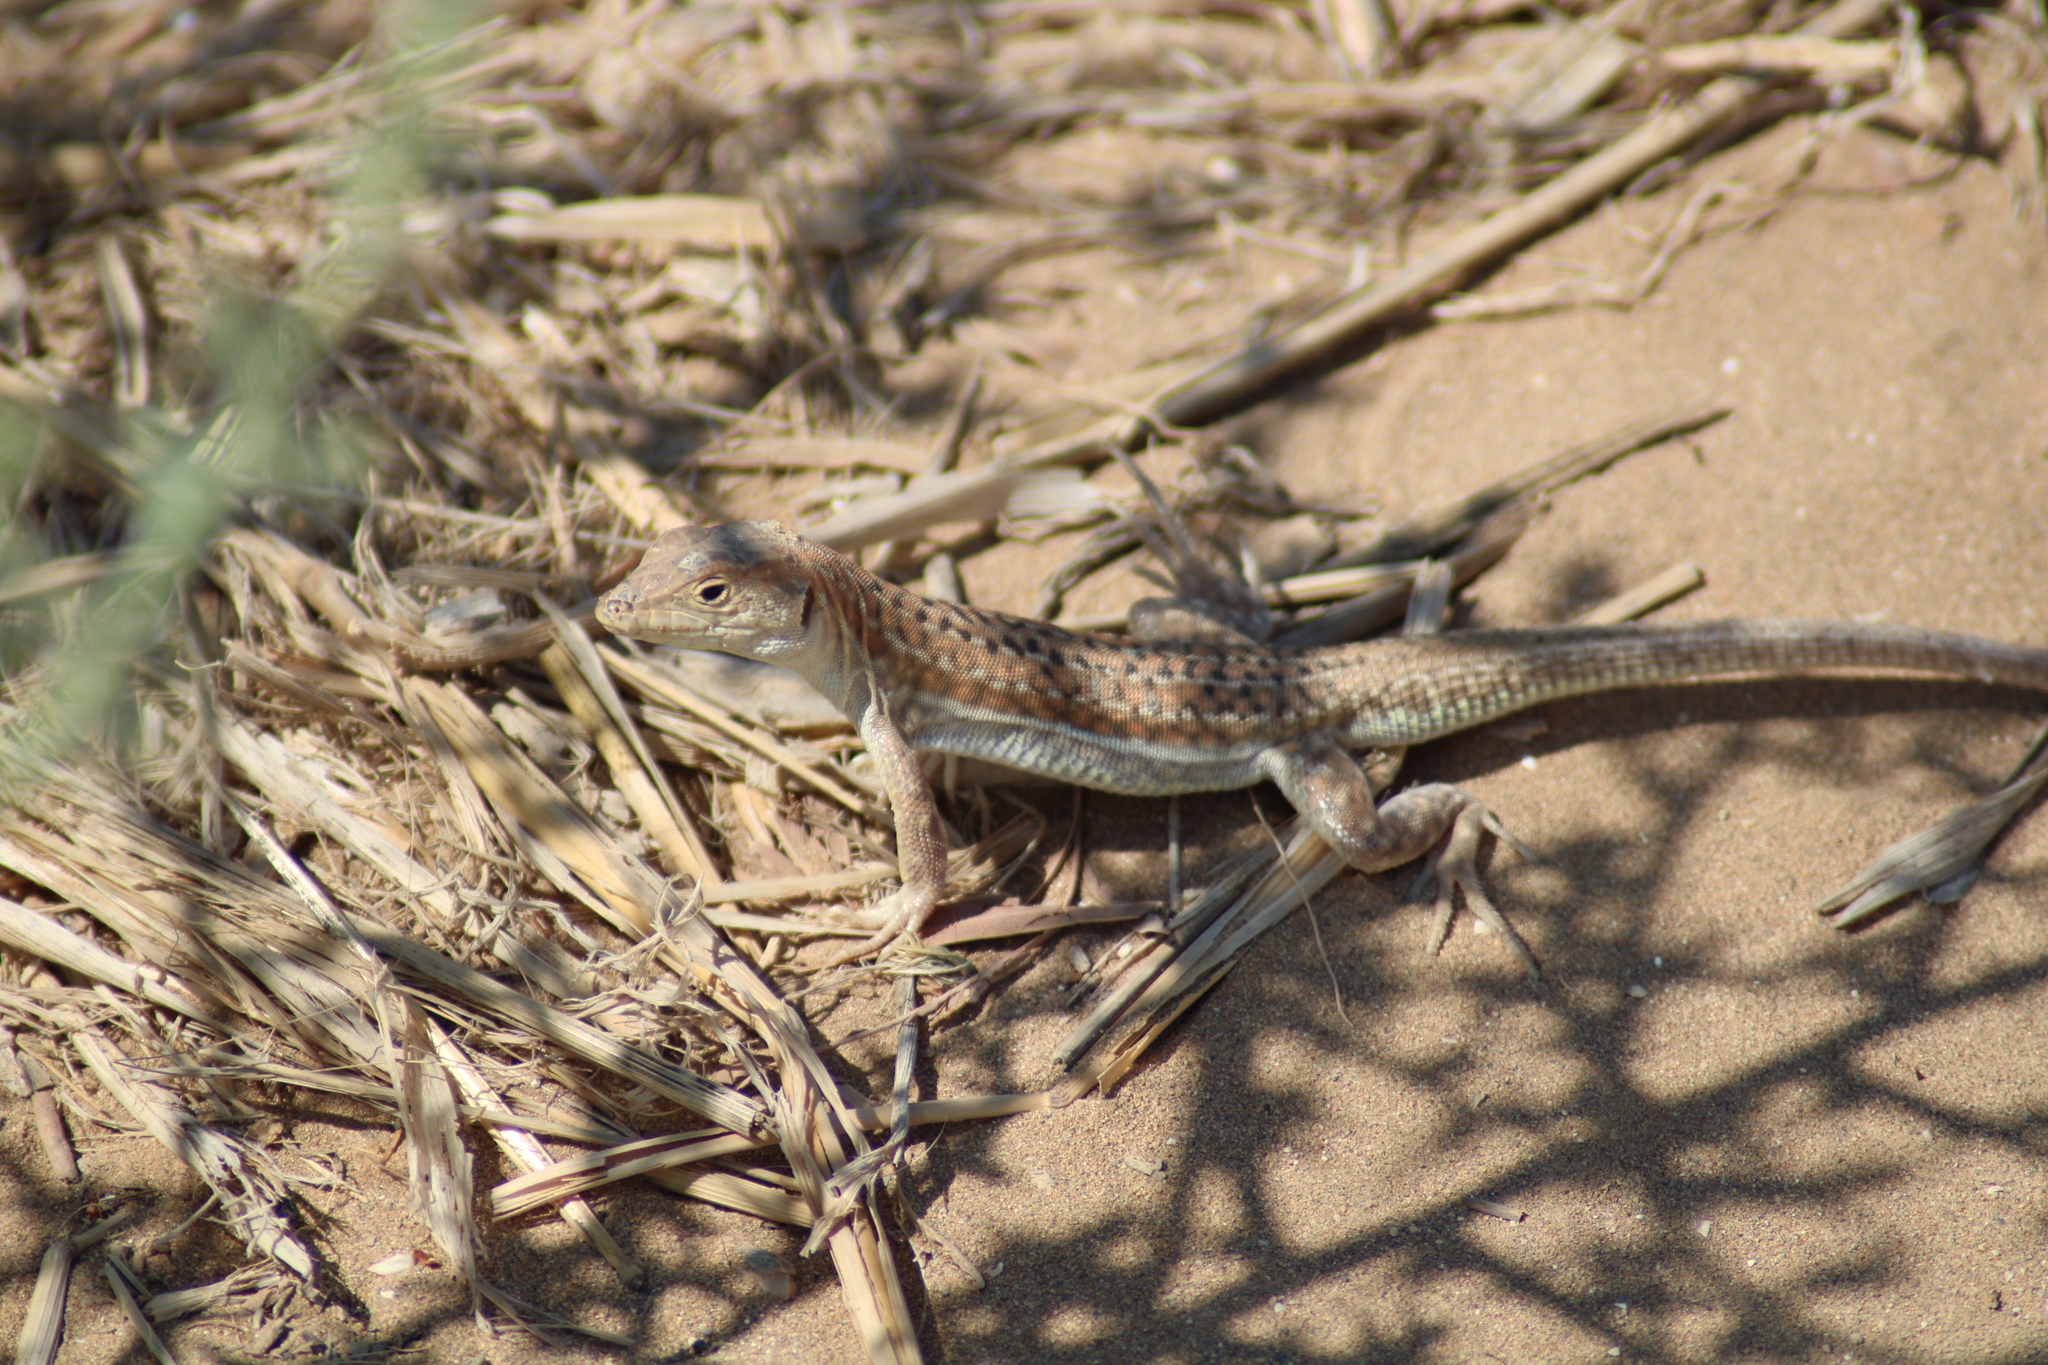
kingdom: Animalia
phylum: Chordata
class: Squamata
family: Lacertidae
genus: Acanthodactylus
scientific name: Acanthodactylus schreiberi
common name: Schreiber's fringe-fingered lizard
